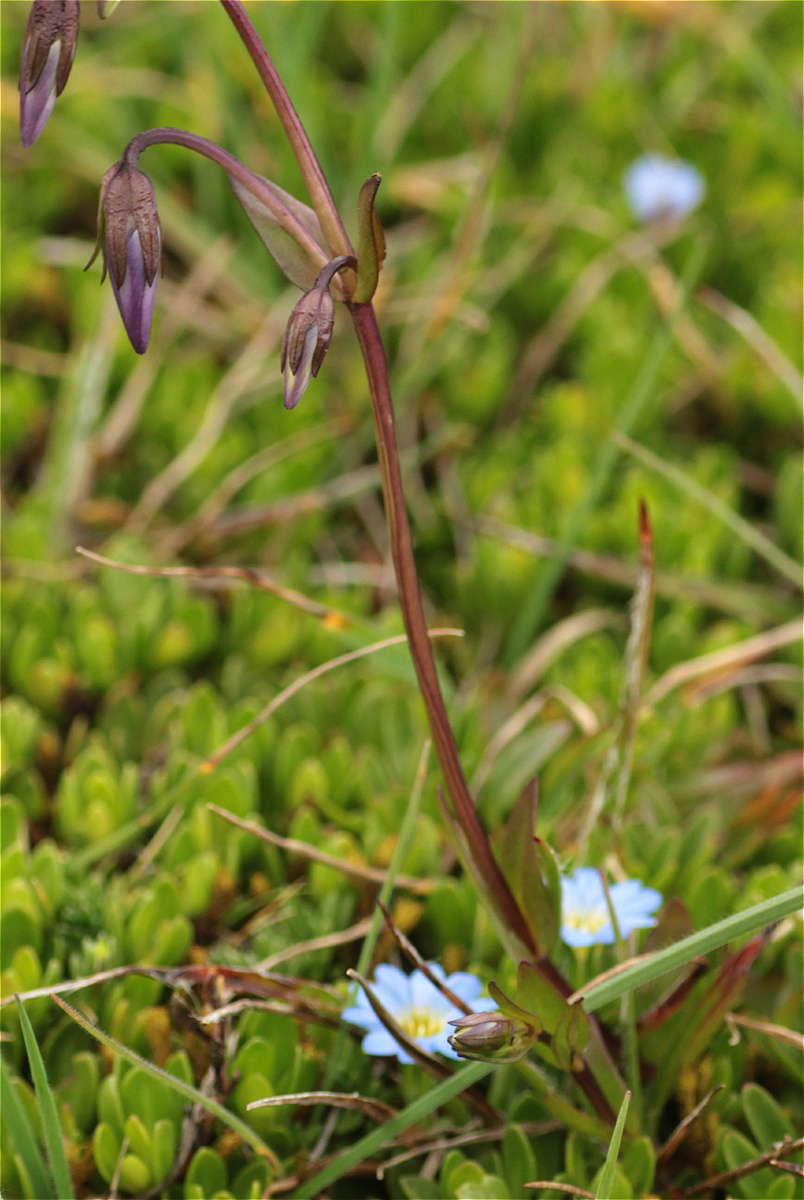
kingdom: Plantae
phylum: Tracheophyta
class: Magnoliopsida
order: Gentianales
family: Gentianaceae
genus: Gentiana
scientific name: Gentiana sedifolia
